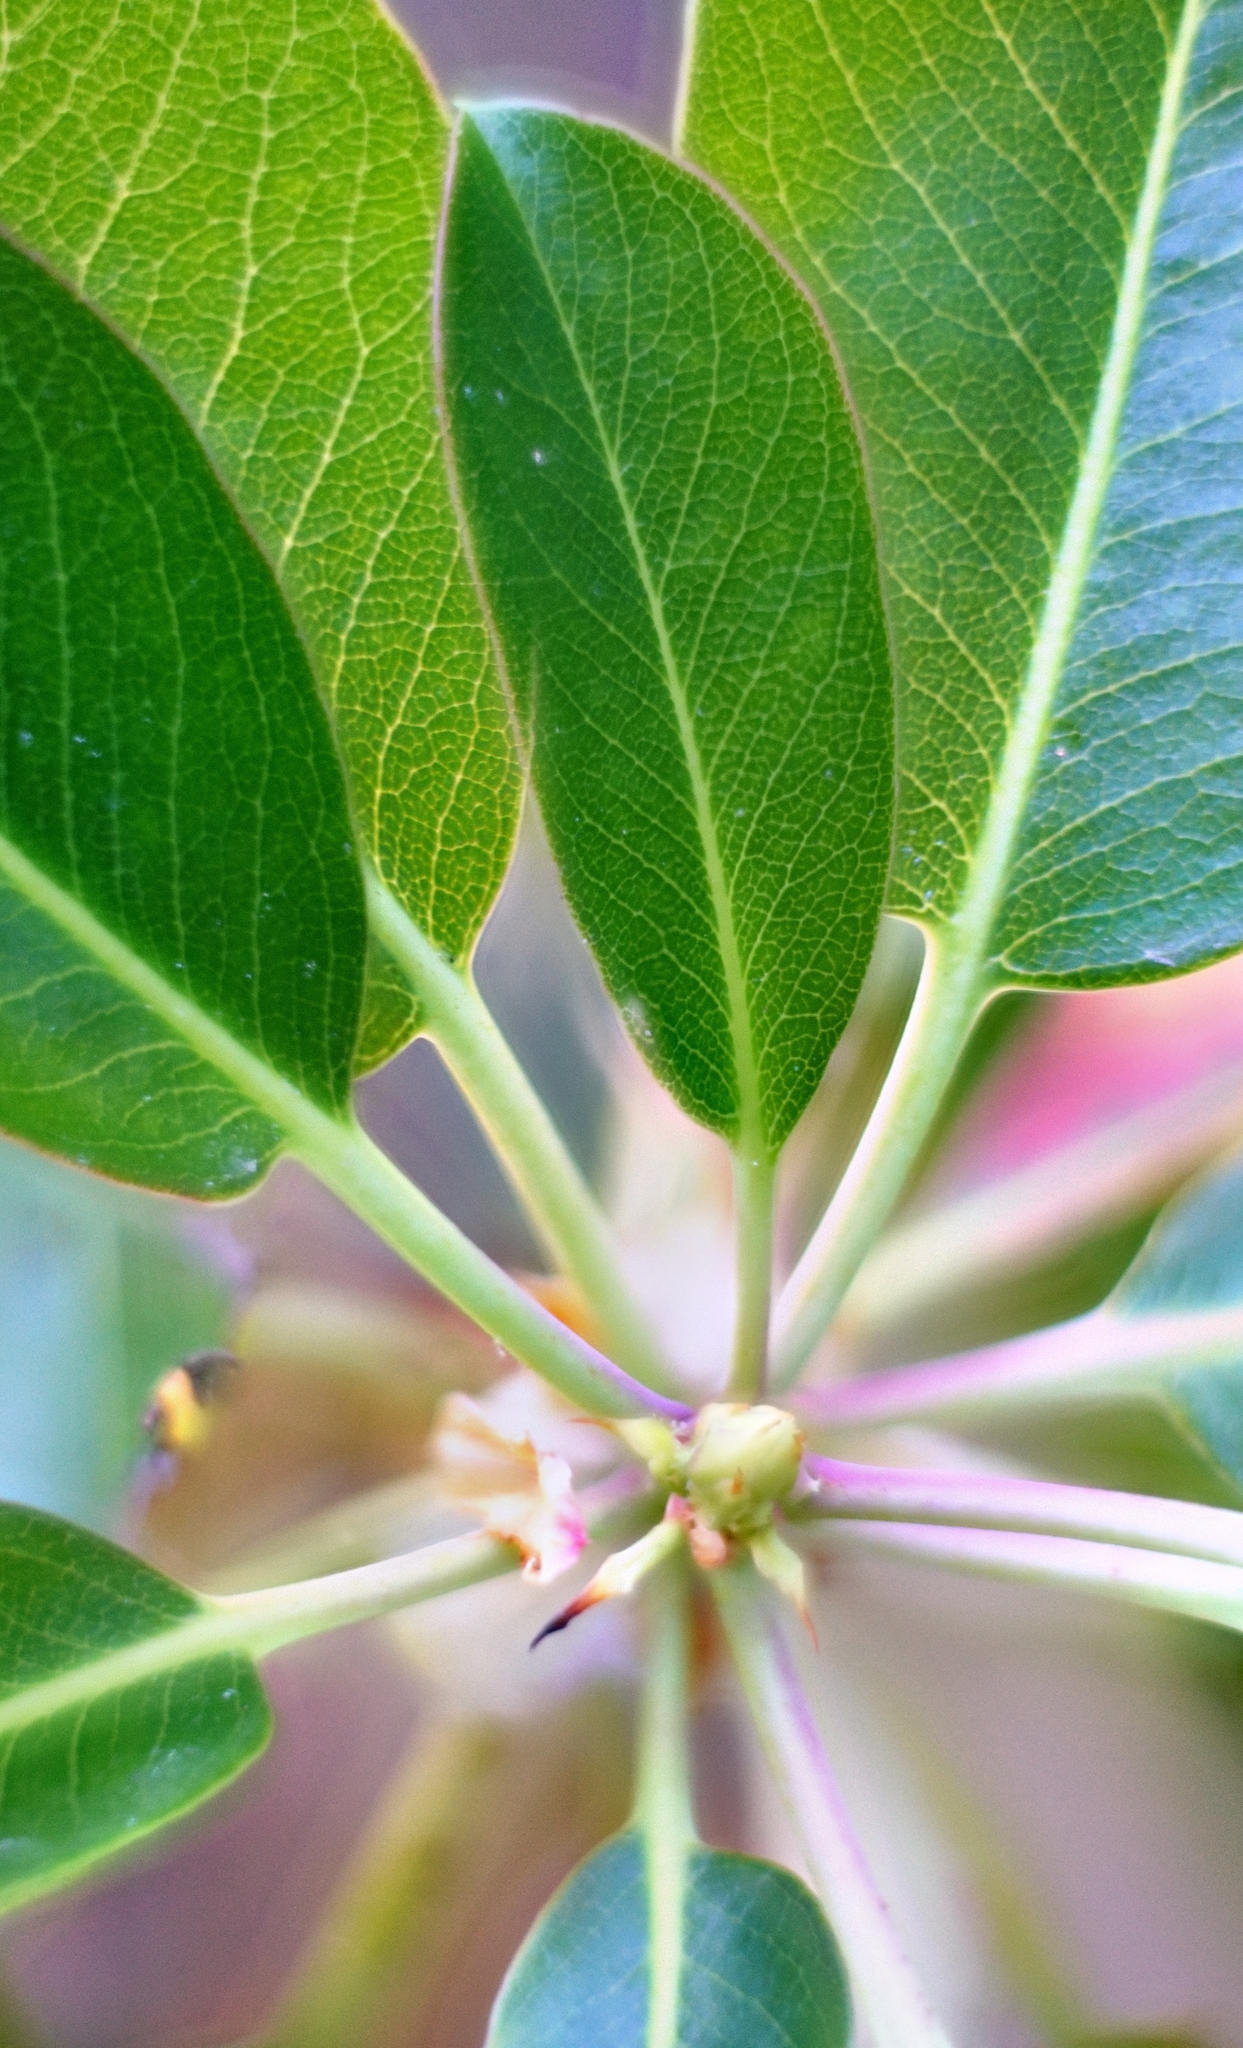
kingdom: Plantae
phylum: Tracheophyta
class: Magnoliopsida
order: Ericales
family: Ericaceae
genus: Arbutus
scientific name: Arbutus menziesii
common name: Pacific madrone
